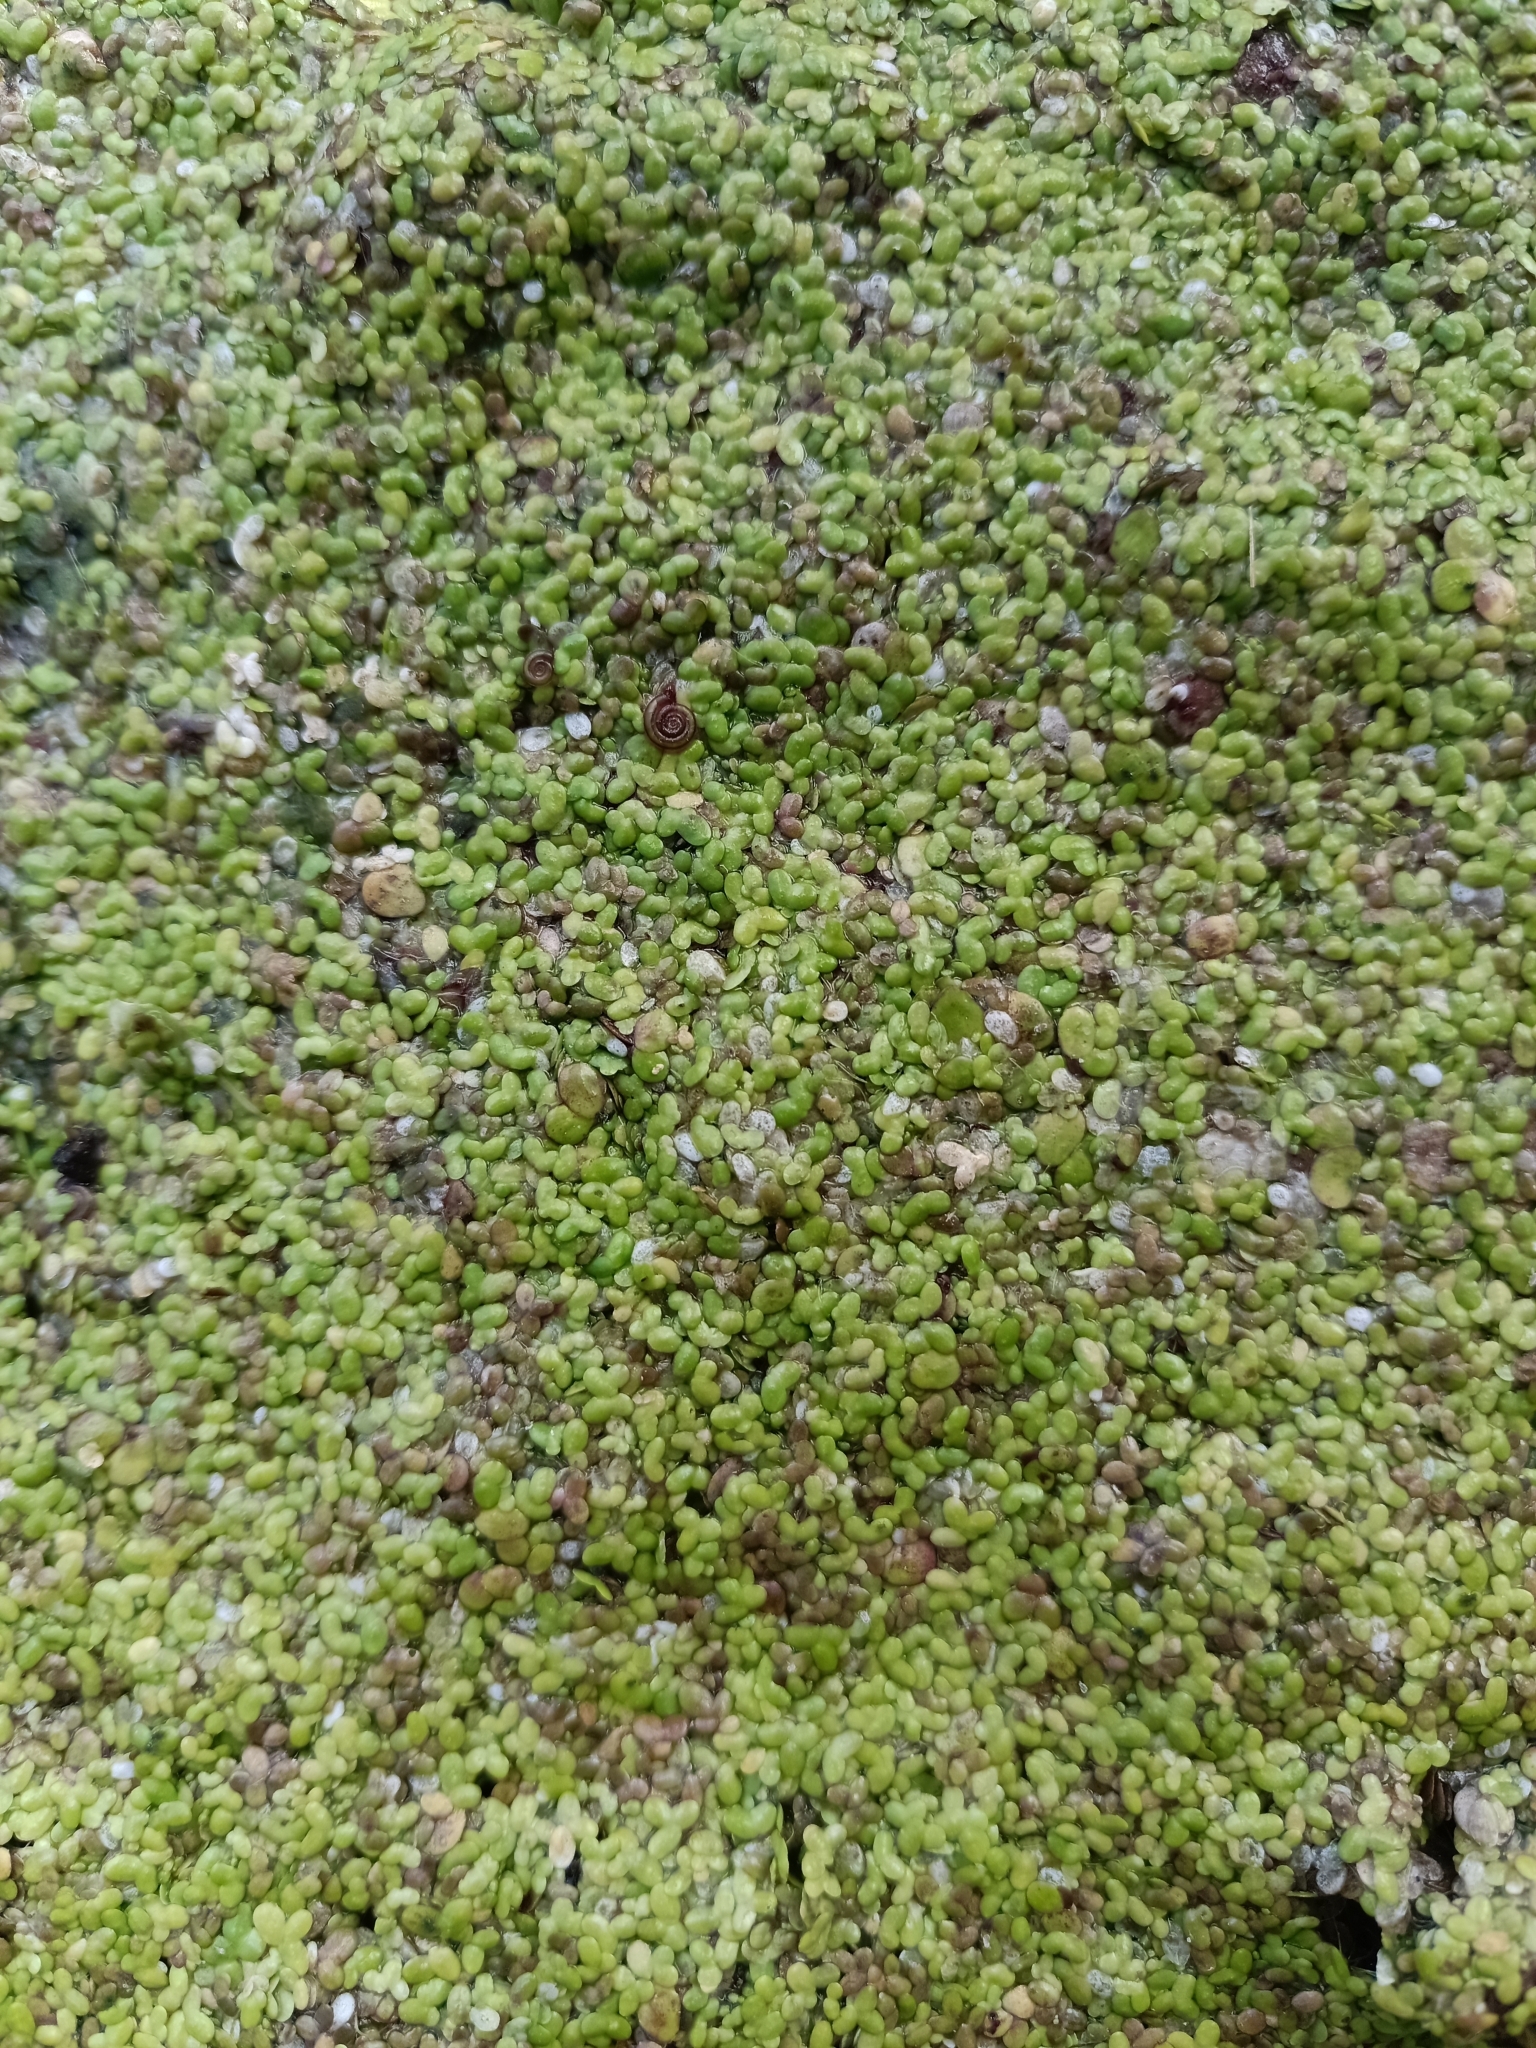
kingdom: Plantae
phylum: Tracheophyta
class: Liliopsida
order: Alismatales
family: Araceae
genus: Lemna
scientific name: Lemna minor
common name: Common duckweed
